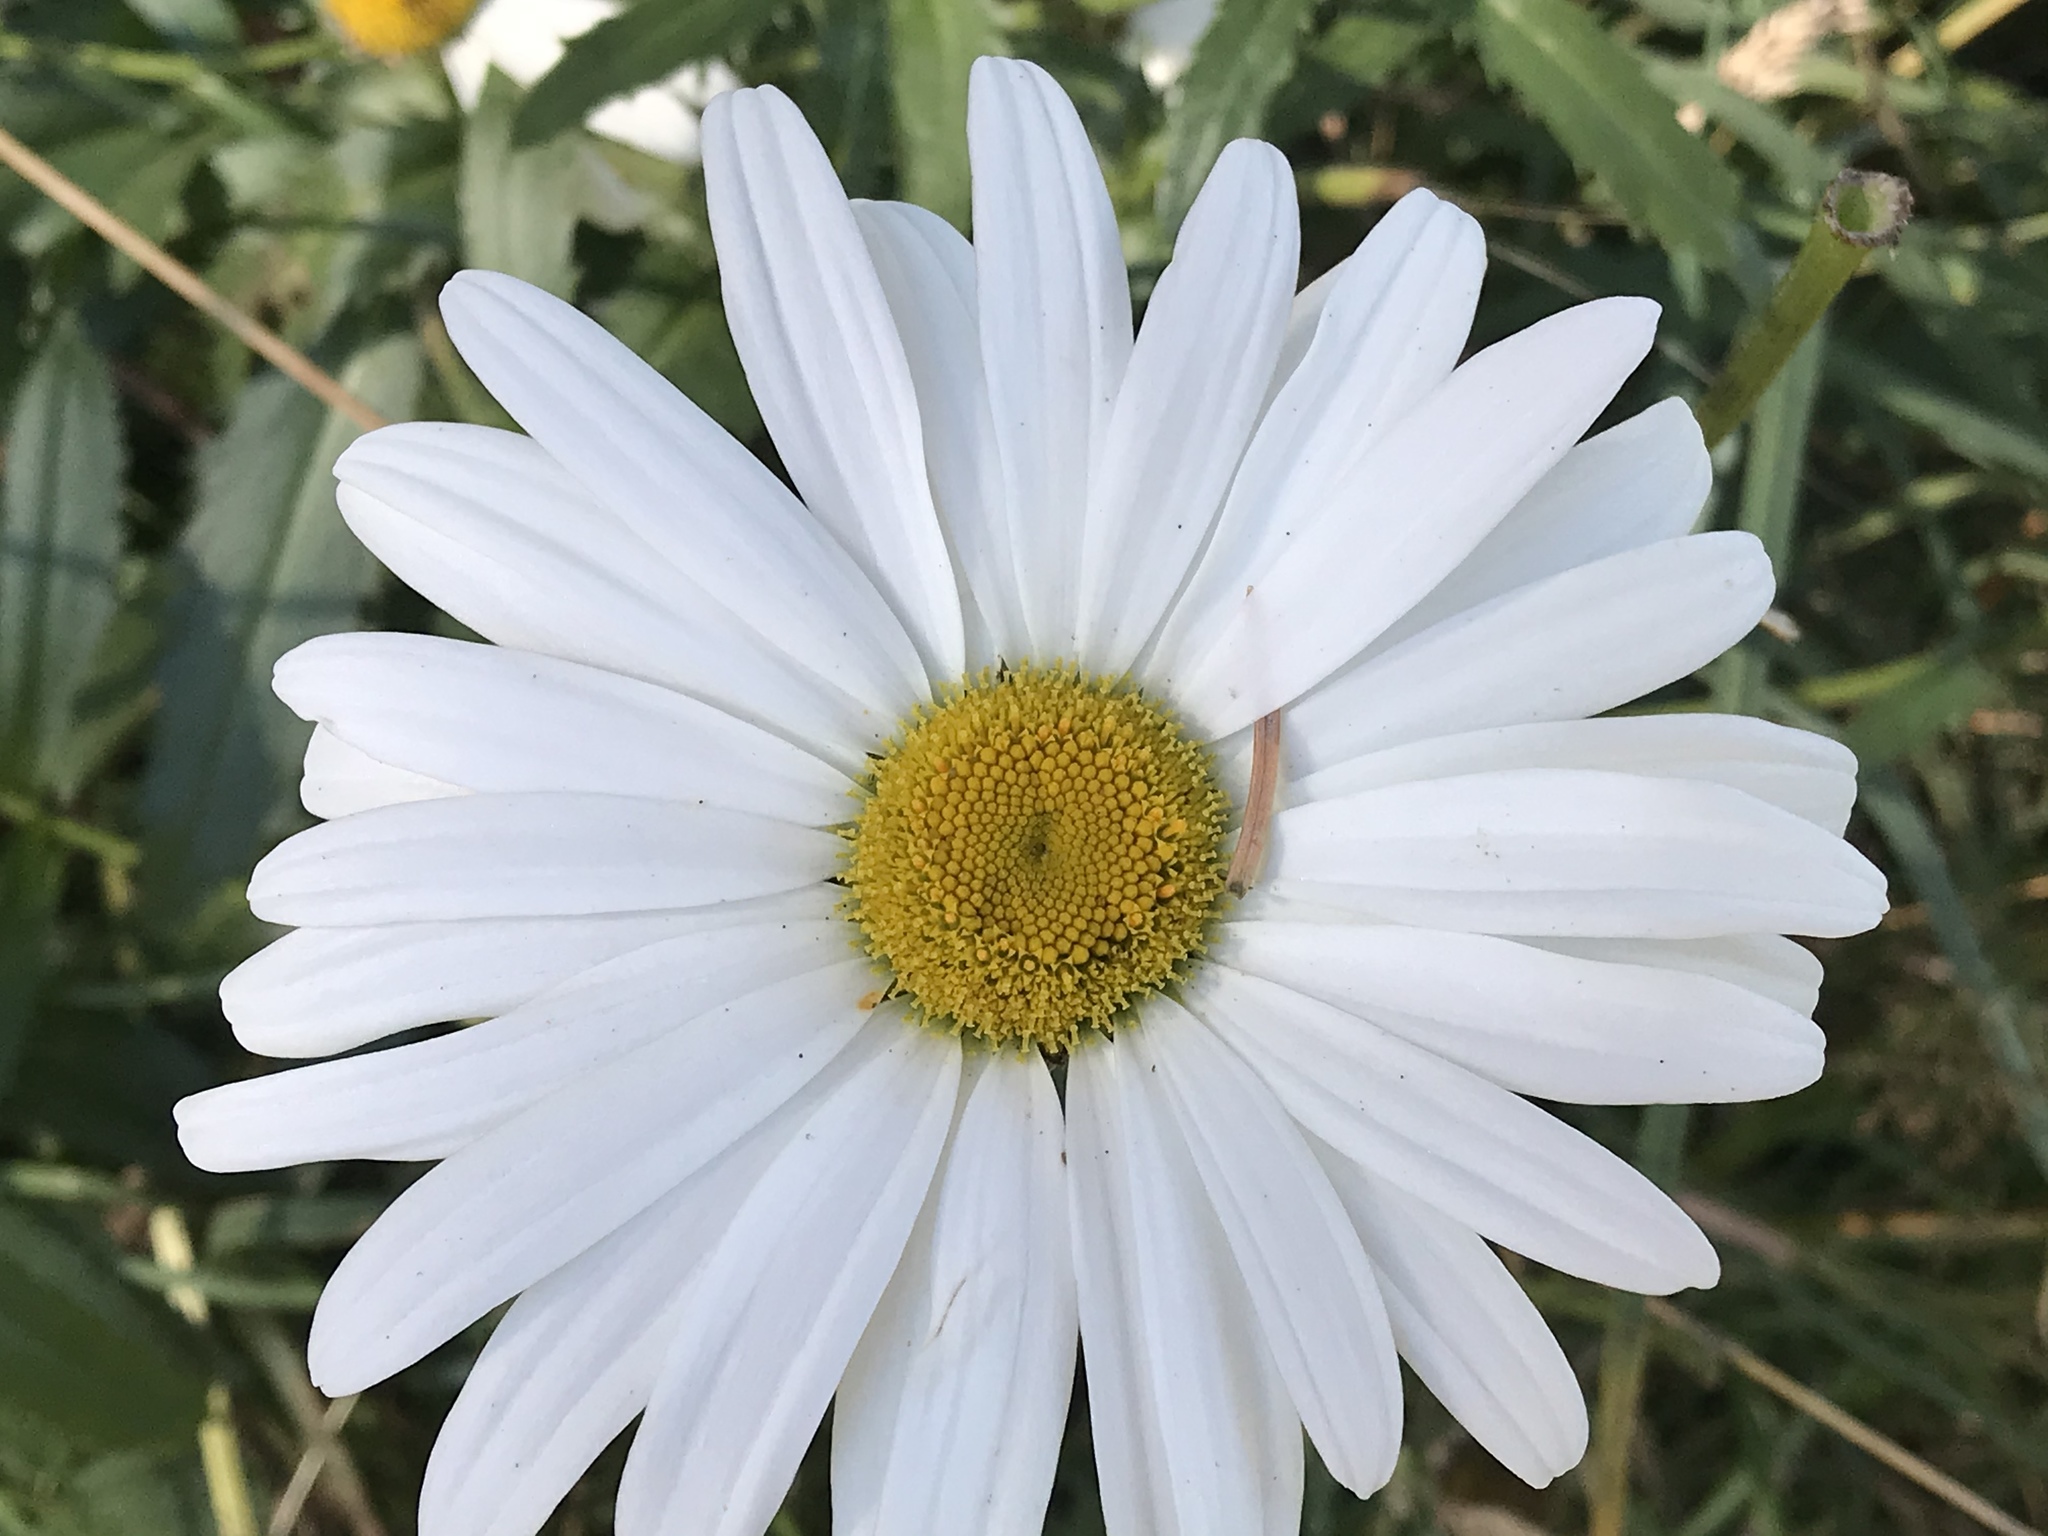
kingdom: Plantae
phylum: Tracheophyta
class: Magnoliopsida
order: Asterales
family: Asteraceae
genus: Leucanthemum
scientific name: Leucanthemum vulgare
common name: Oxeye daisy
